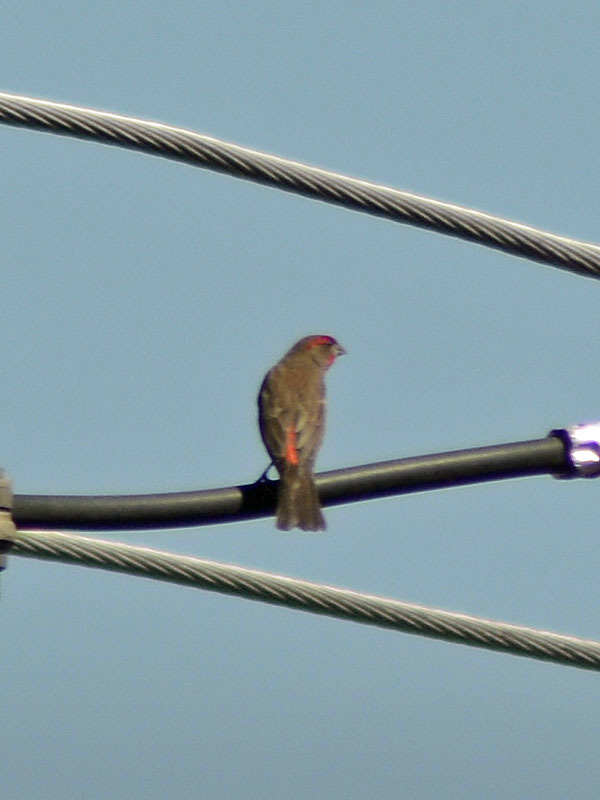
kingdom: Animalia
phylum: Chordata
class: Aves
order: Passeriformes
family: Fringillidae
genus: Haemorhous
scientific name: Haemorhous mexicanus
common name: House finch
